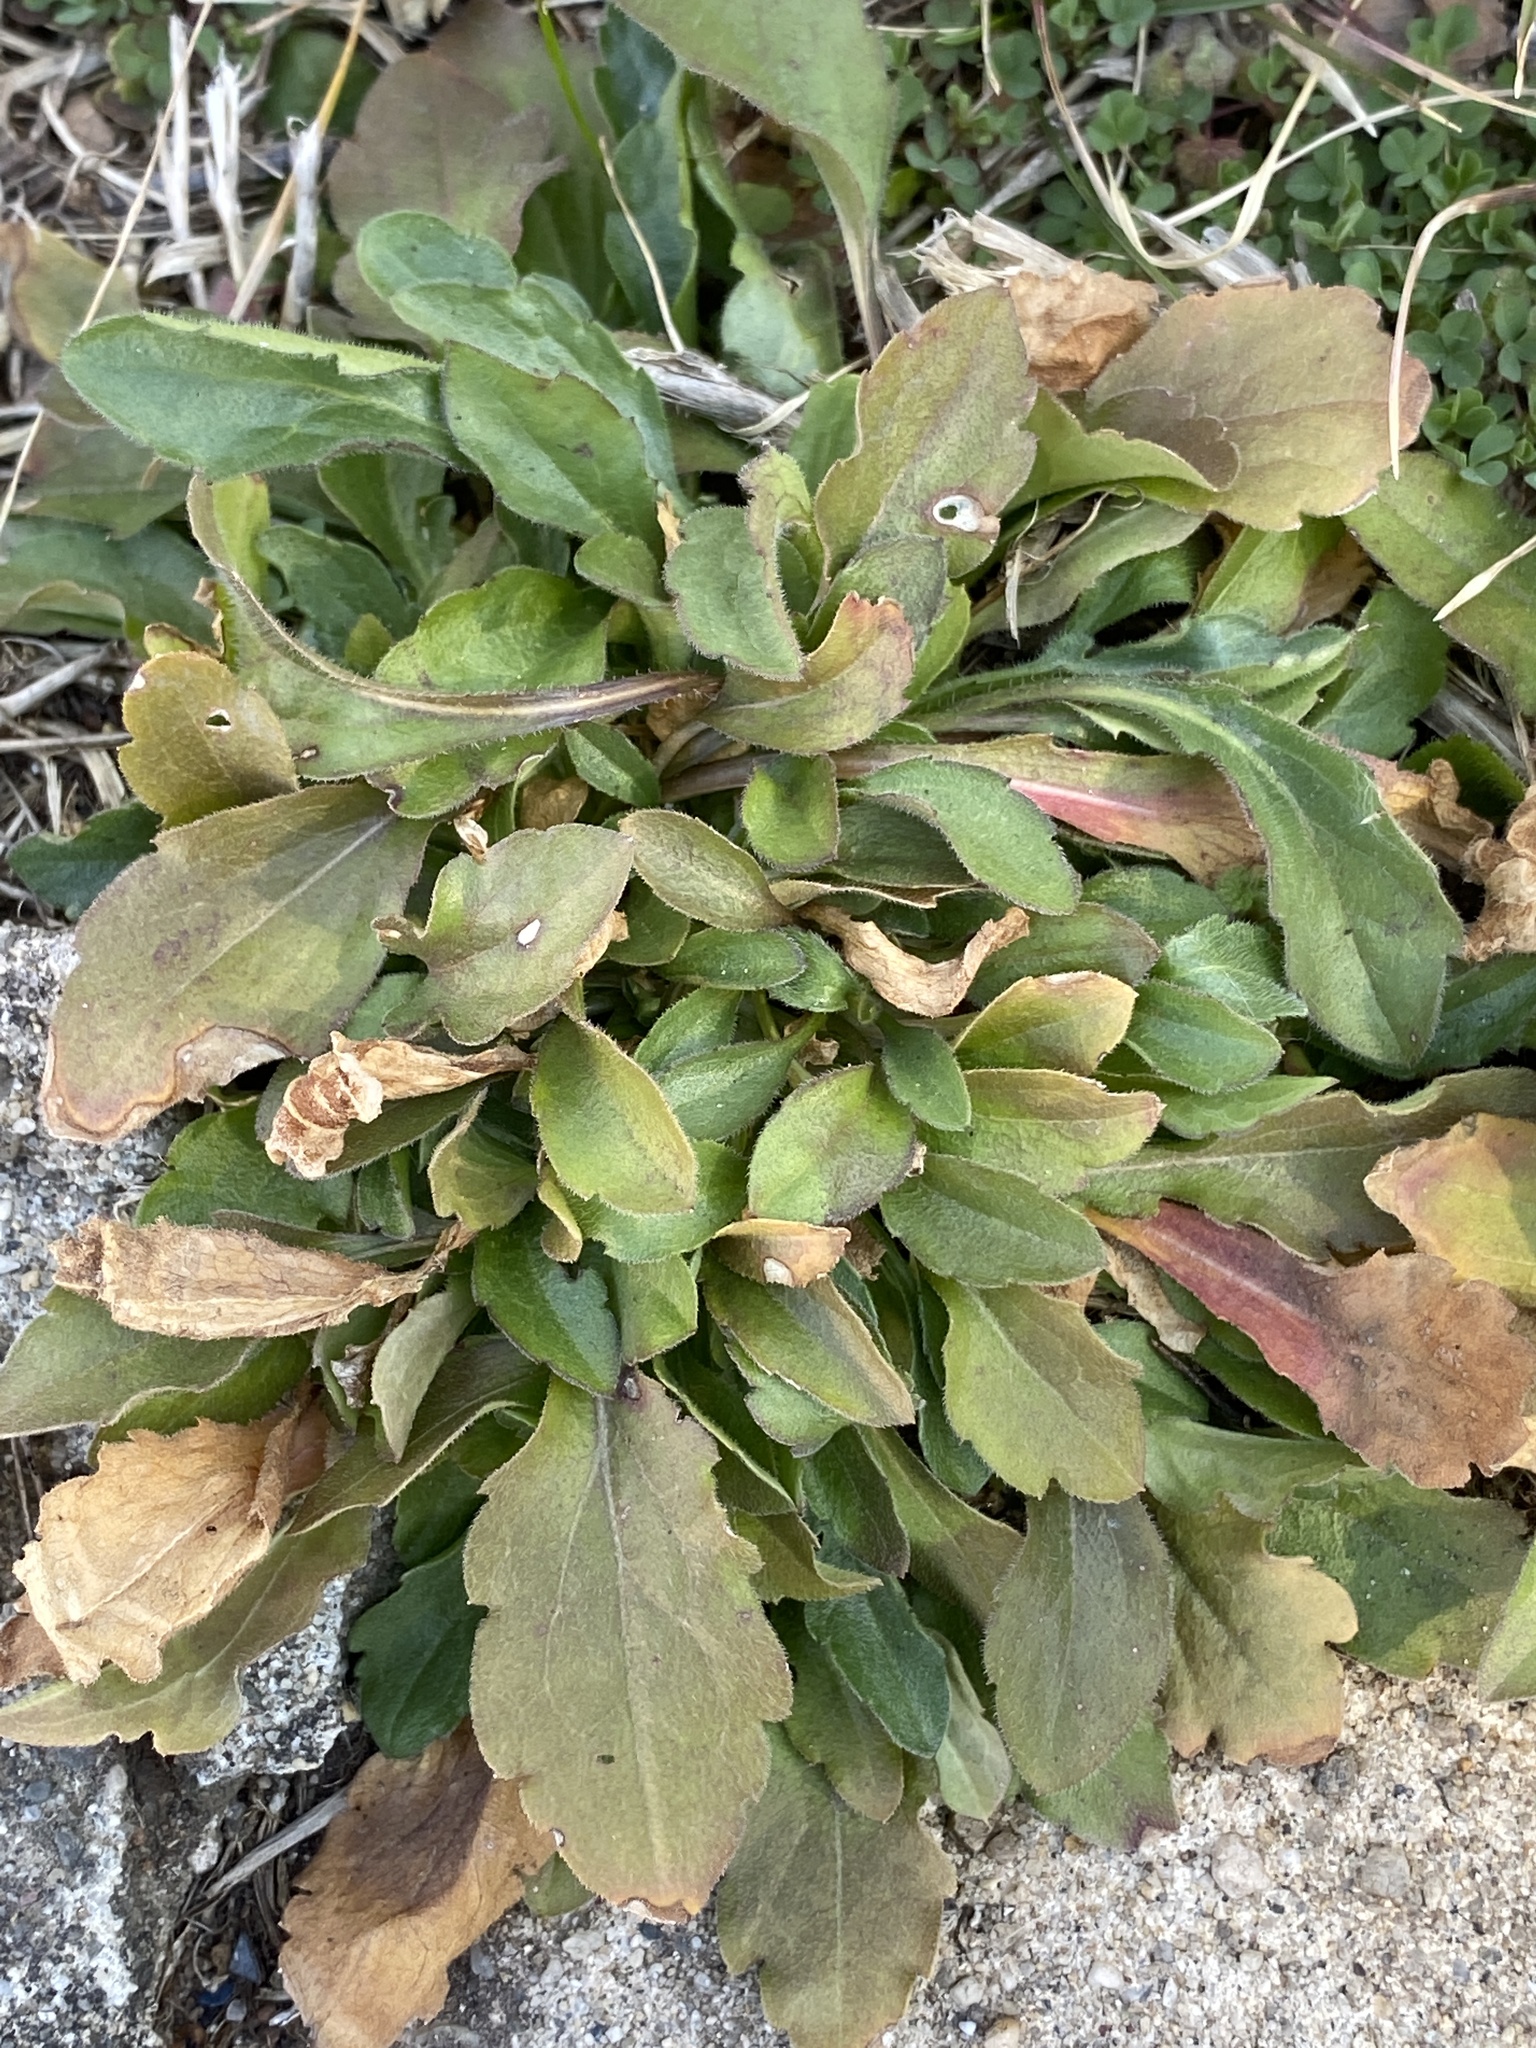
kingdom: Plantae
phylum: Tracheophyta
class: Magnoliopsida
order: Asterales
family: Asteraceae
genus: Erigeron
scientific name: Erigeron canadensis
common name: Canadian fleabane
